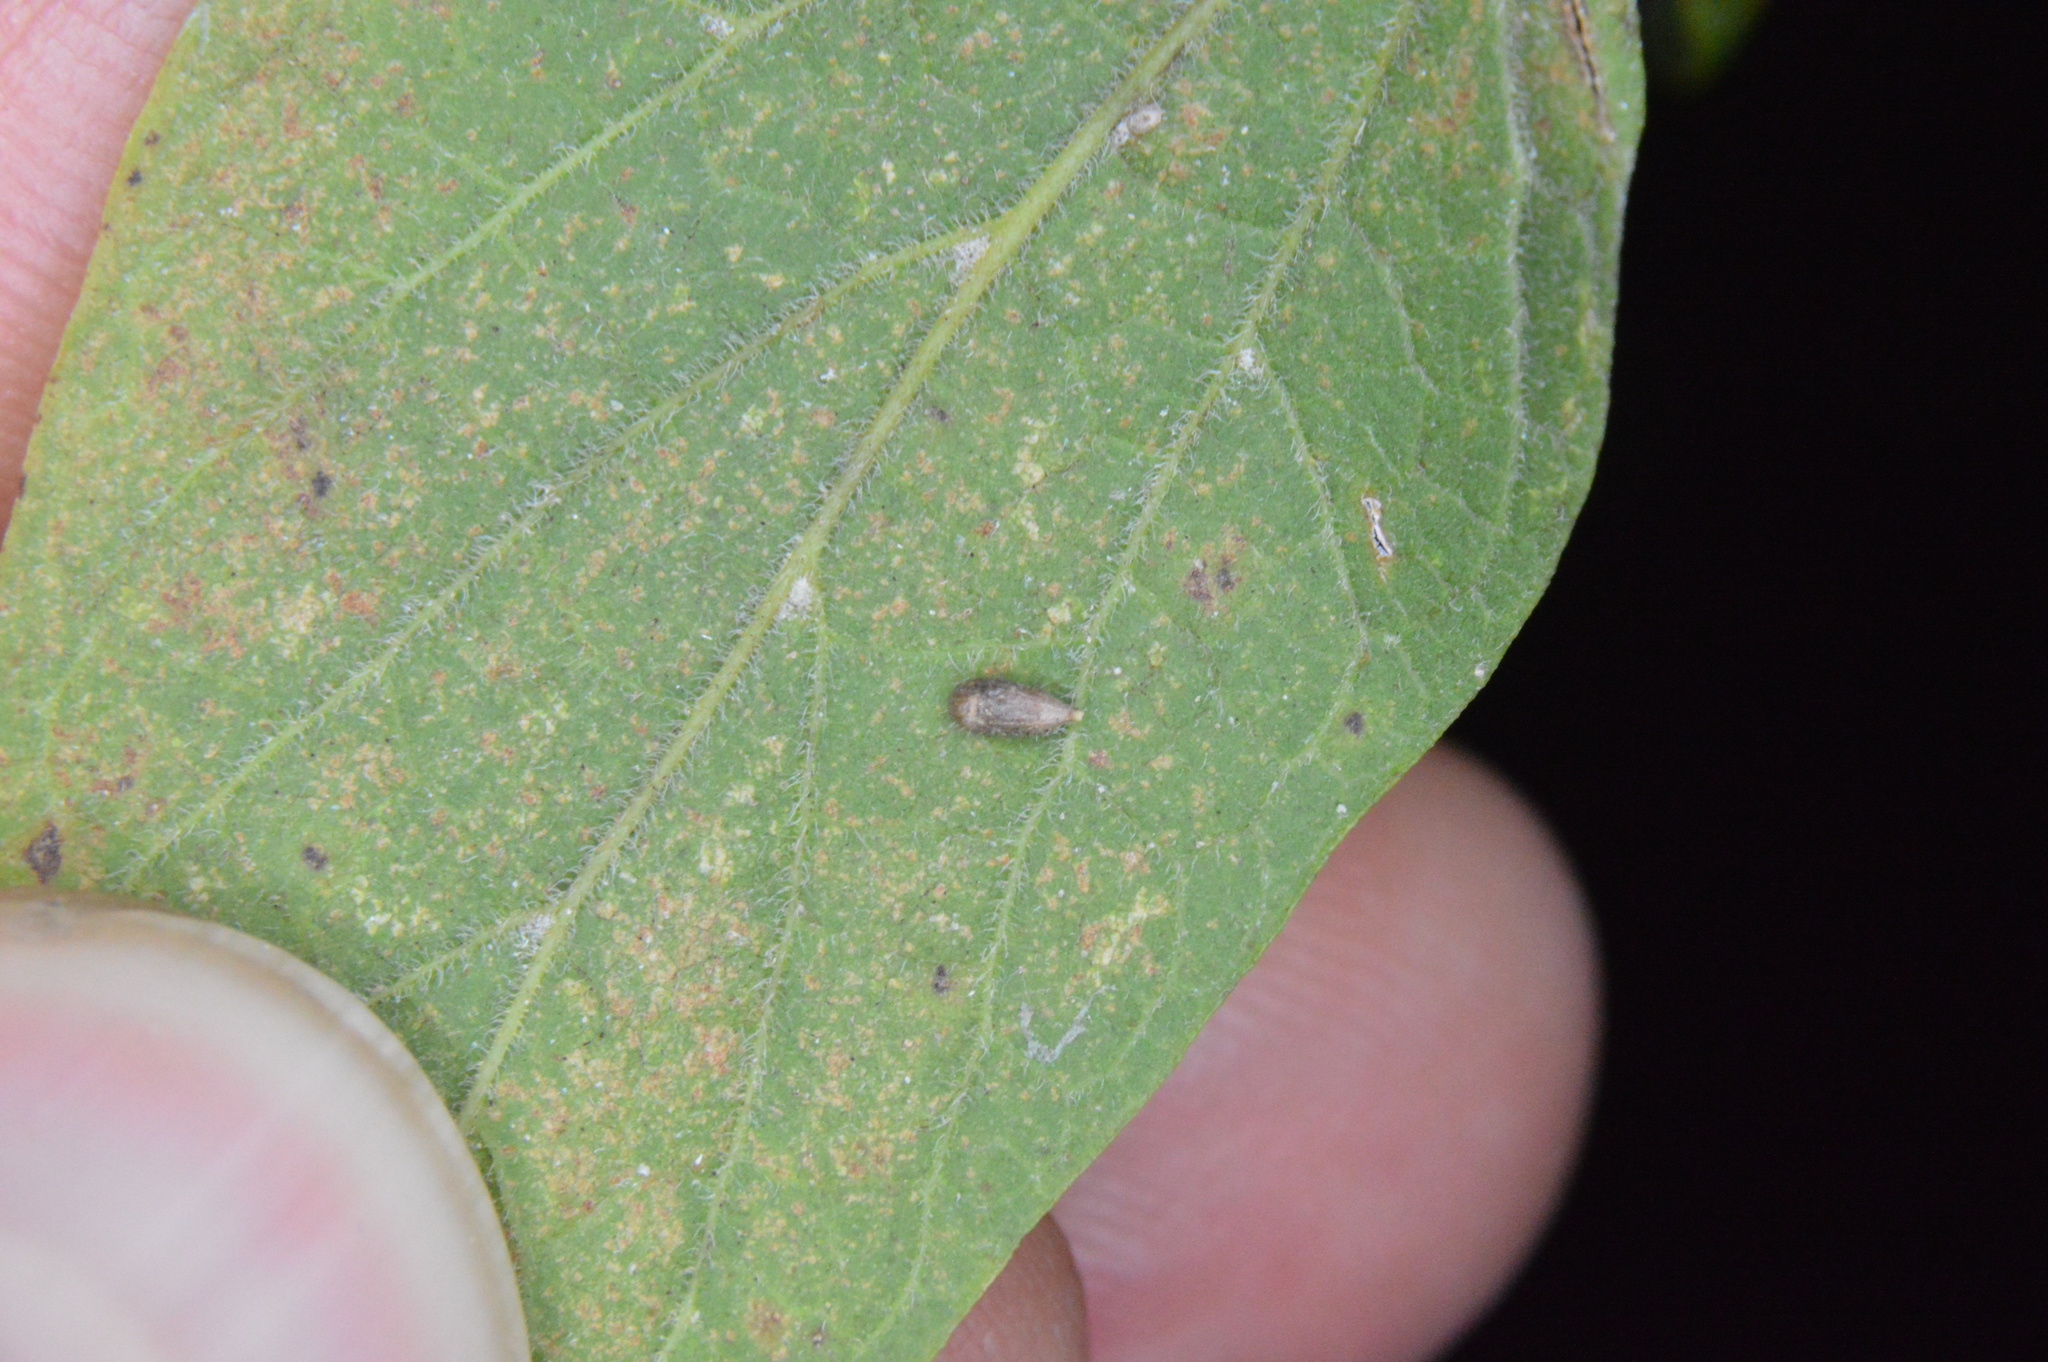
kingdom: Animalia
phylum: Arthropoda
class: Insecta
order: Diptera
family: Cecidomyiidae
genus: Celticecis
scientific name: Celticecis supina
